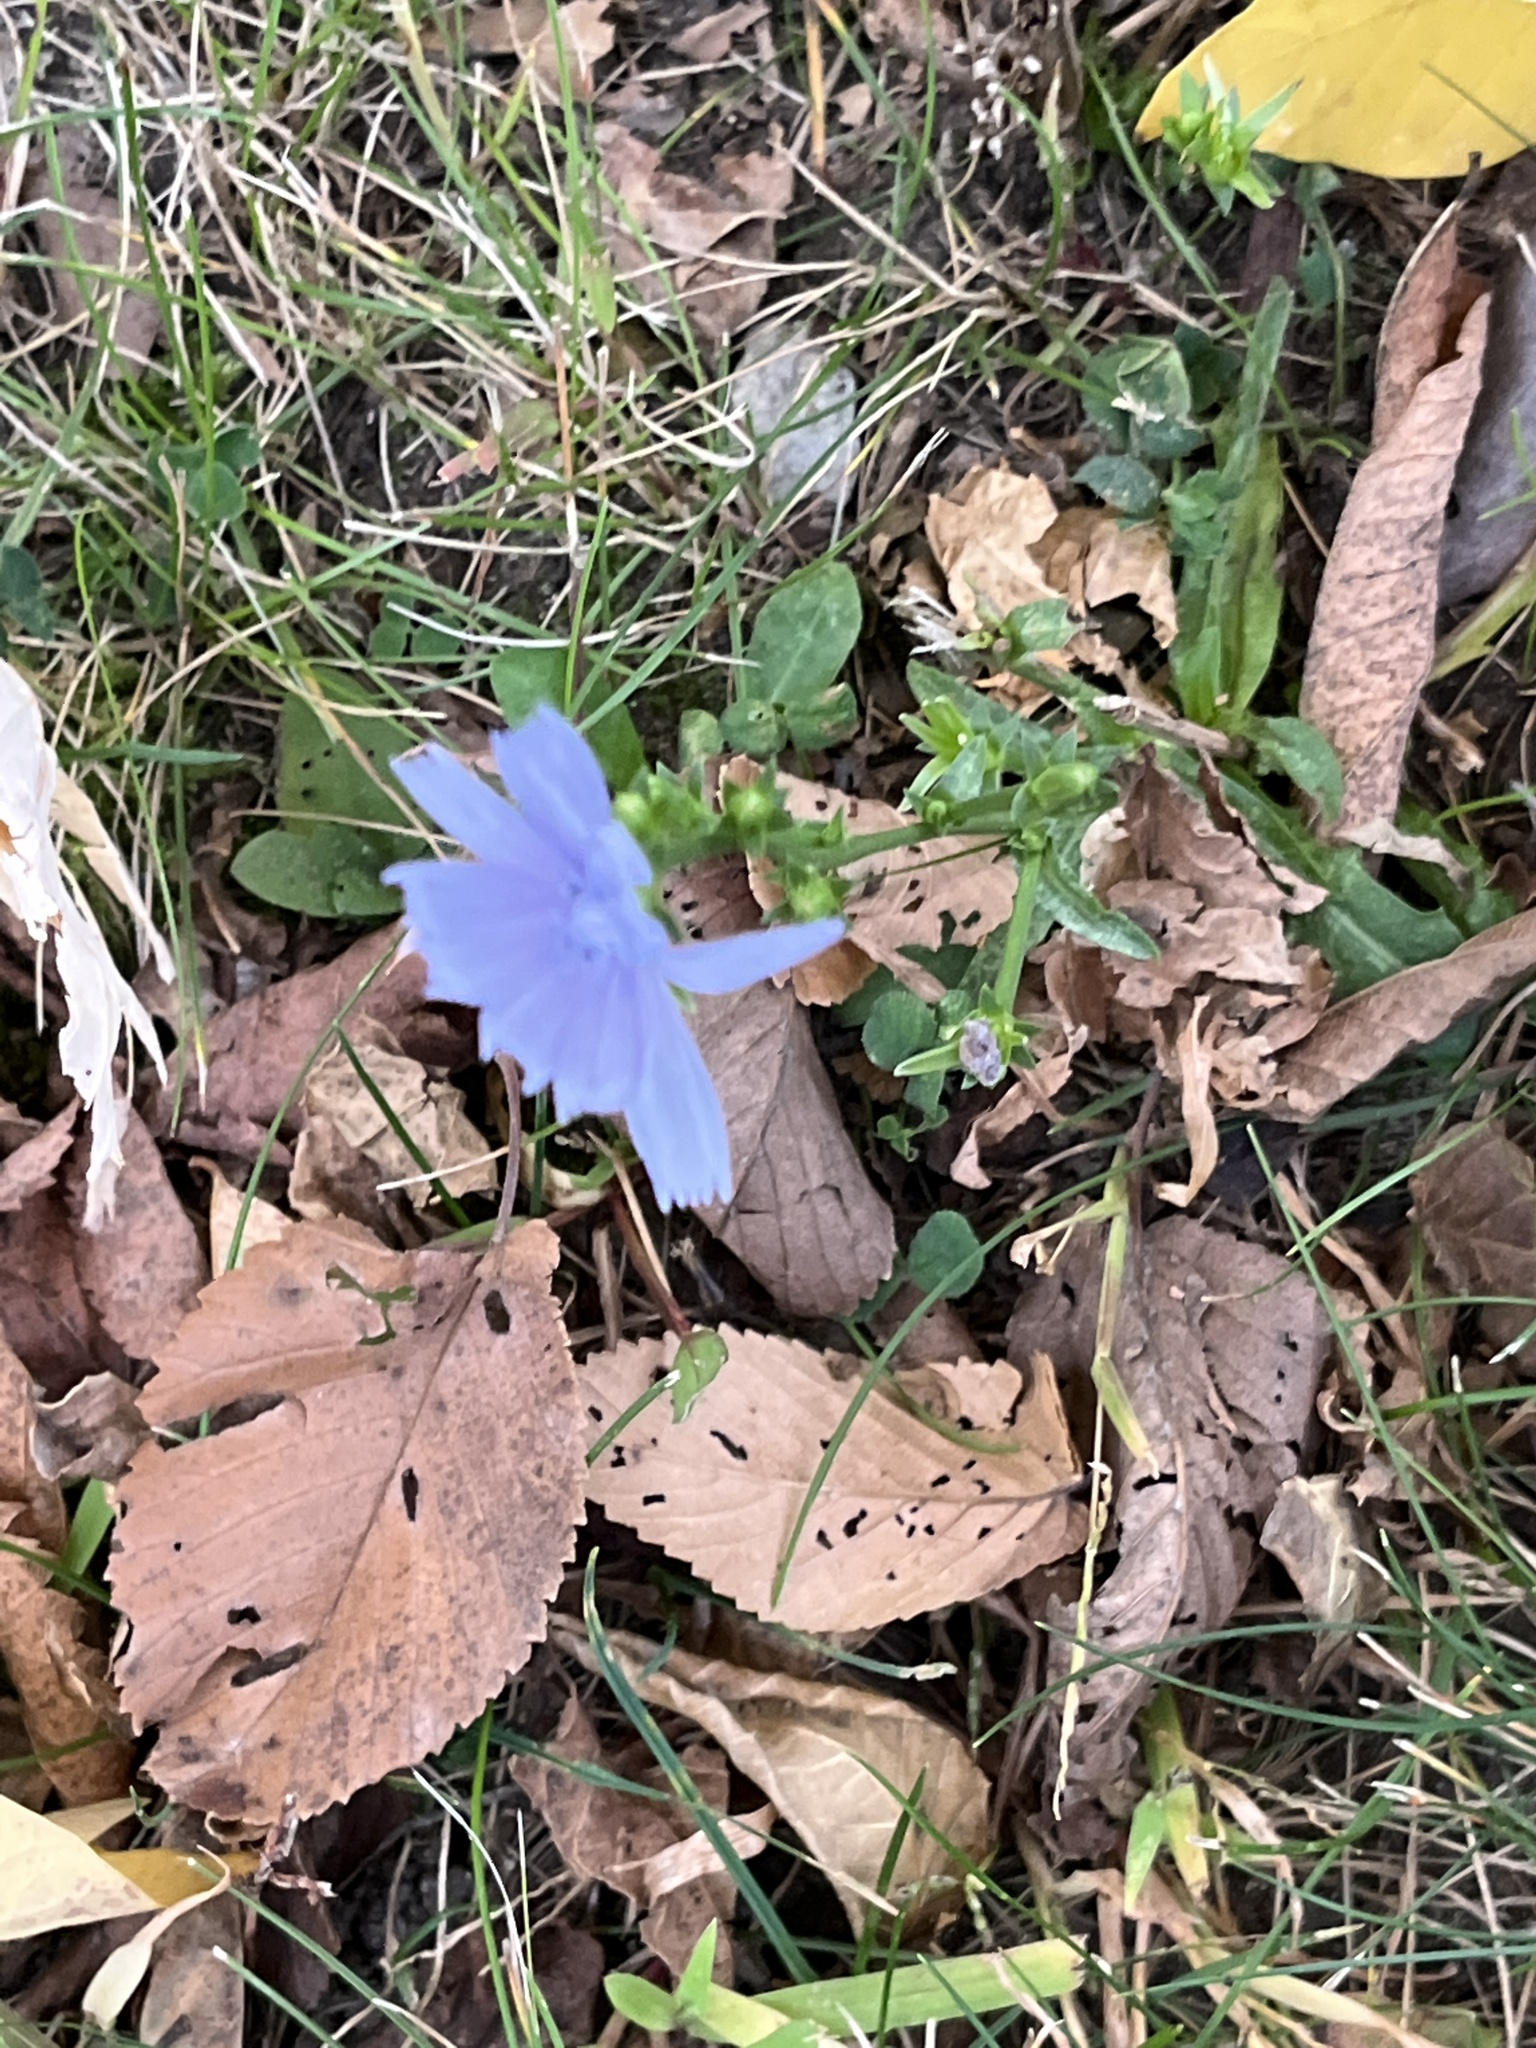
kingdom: Plantae
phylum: Tracheophyta
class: Magnoliopsida
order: Asterales
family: Asteraceae
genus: Cichorium
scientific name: Cichorium intybus
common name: Chicory
